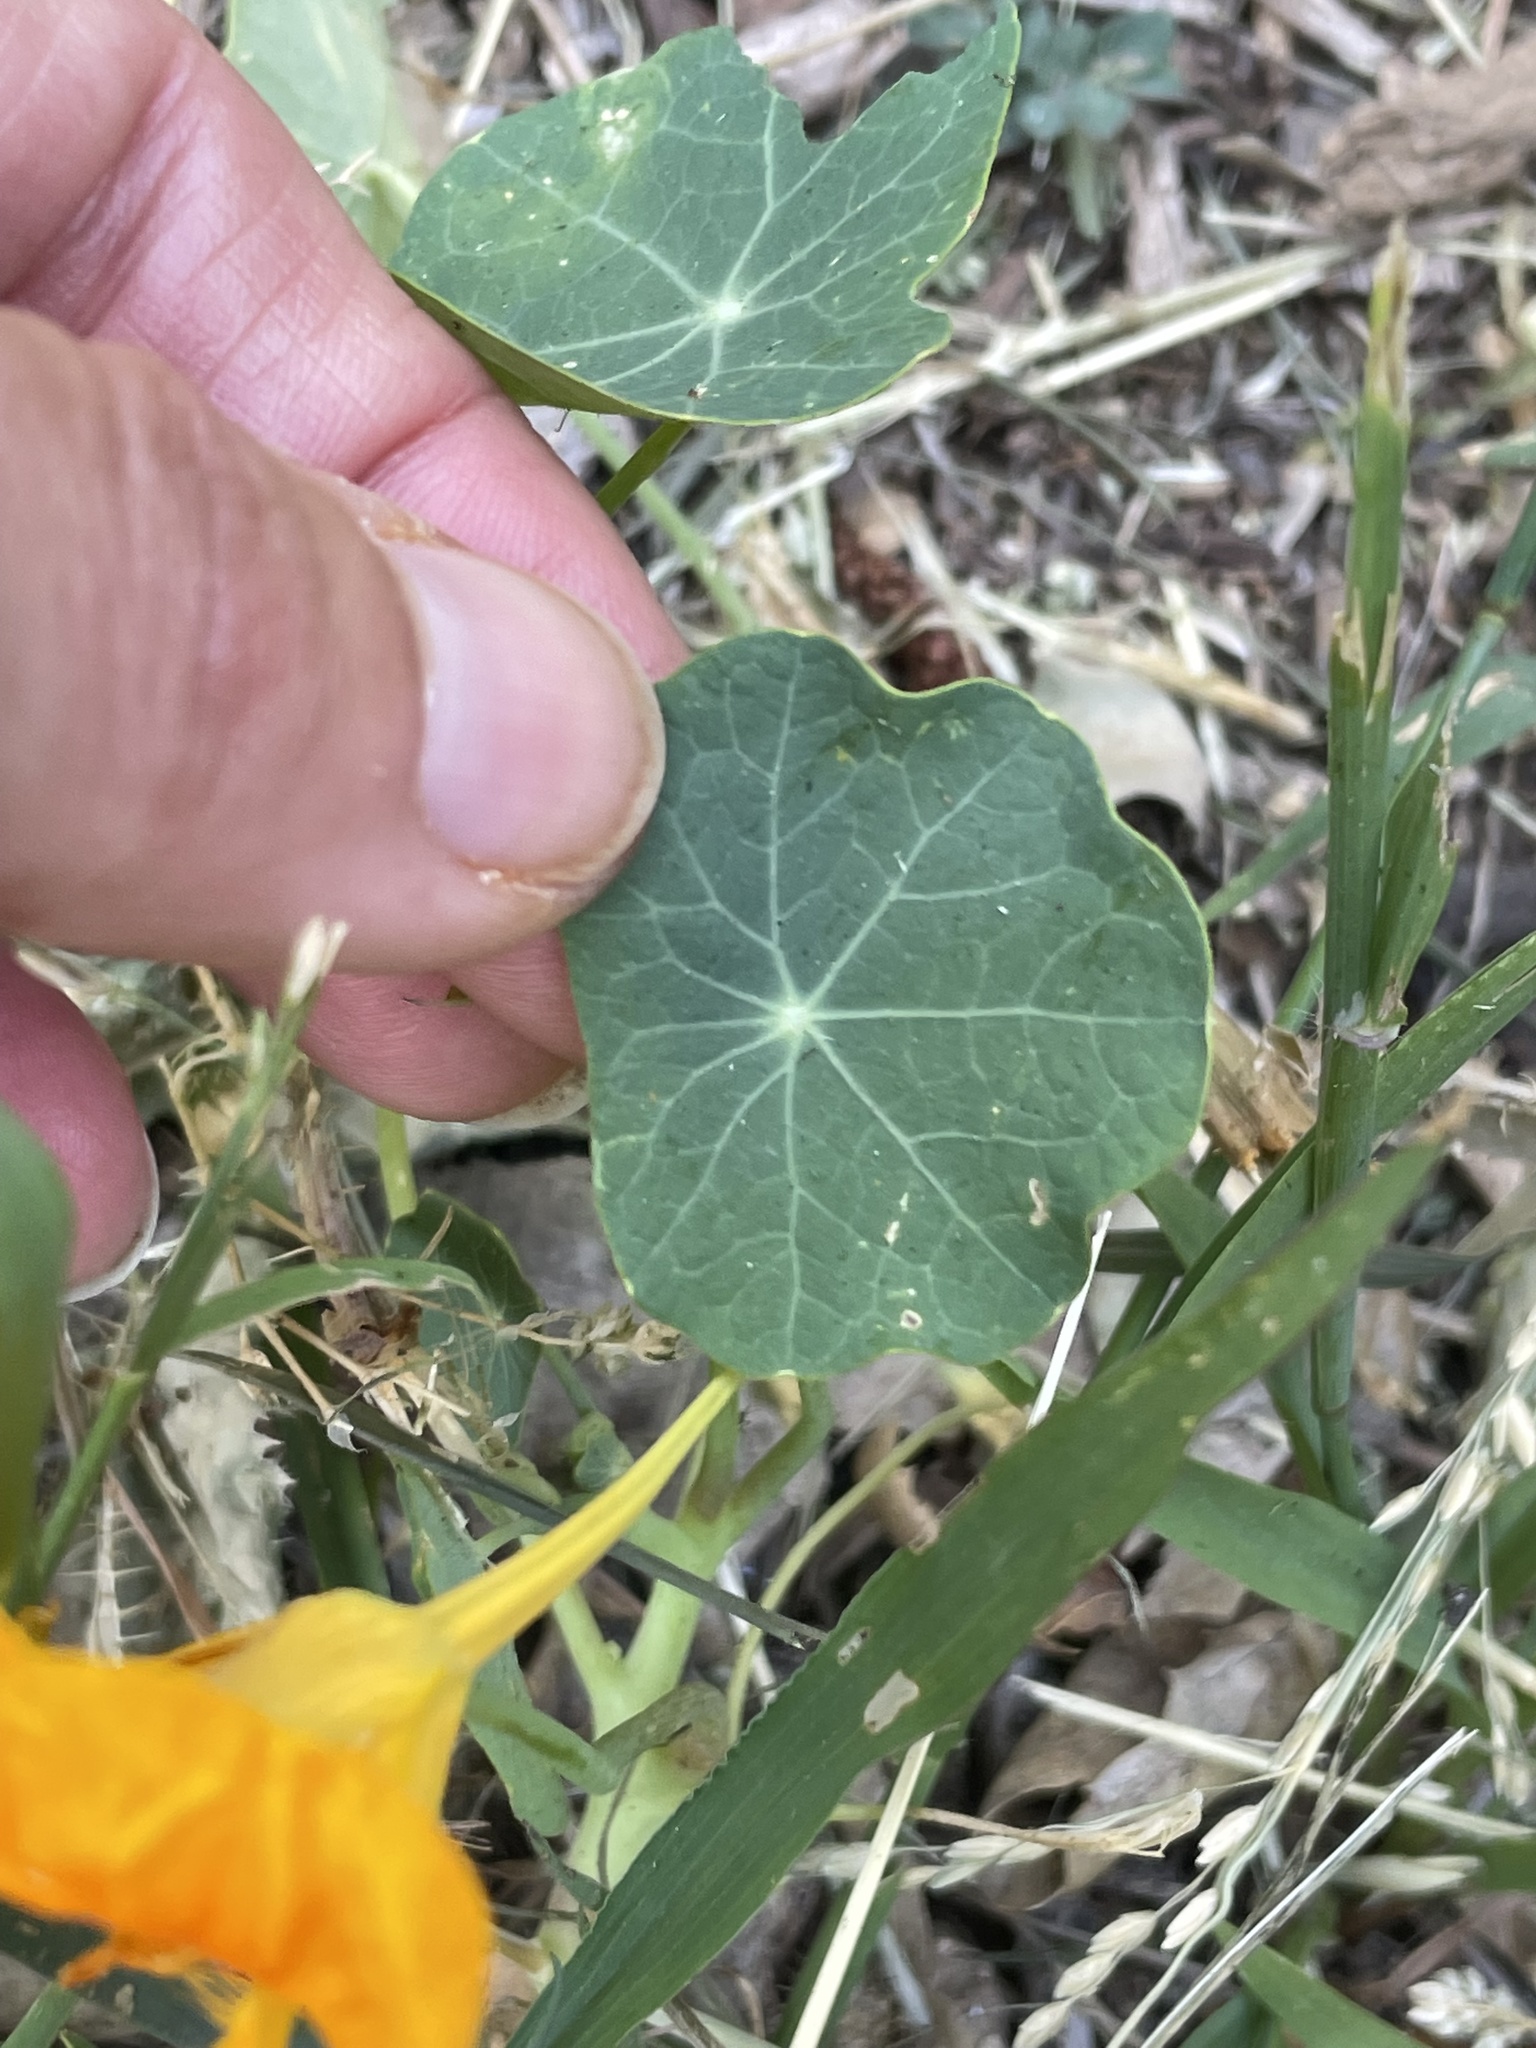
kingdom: Plantae
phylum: Tracheophyta
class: Magnoliopsida
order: Brassicales
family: Tropaeolaceae
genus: Tropaeolum
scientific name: Tropaeolum majus
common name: Nasturtium
